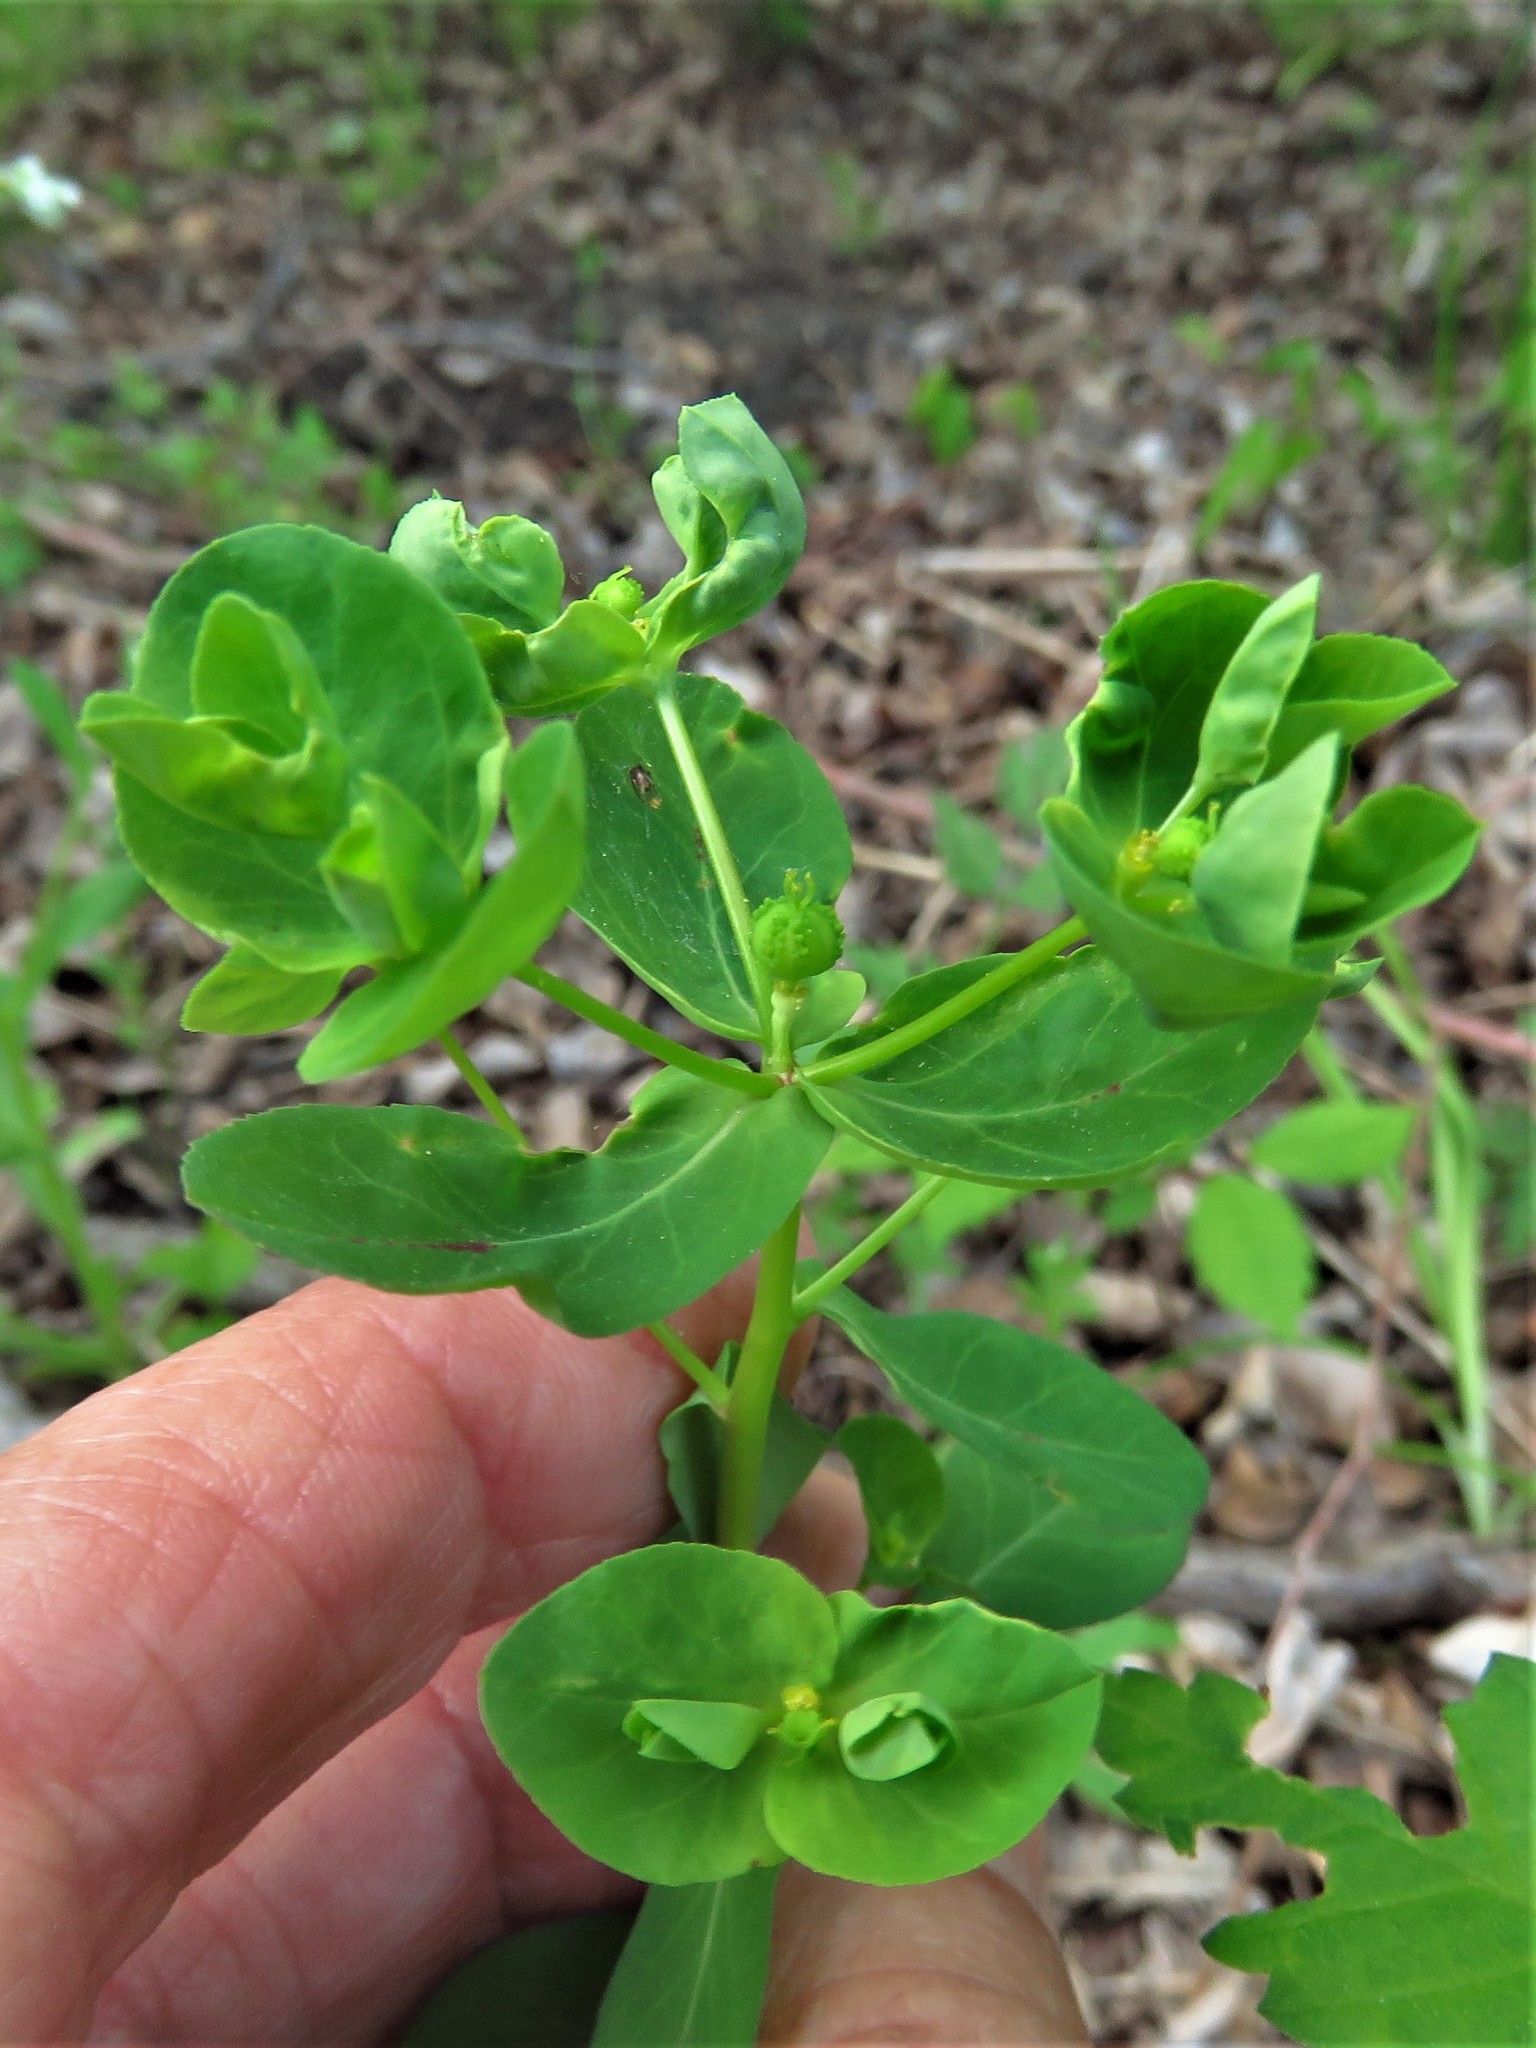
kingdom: Plantae
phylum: Tracheophyta
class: Magnoliopsida
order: Malpighiales
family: Euphorbiaceae
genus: Euphorbia
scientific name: Euphorbia spathulata
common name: Blunt spurge
